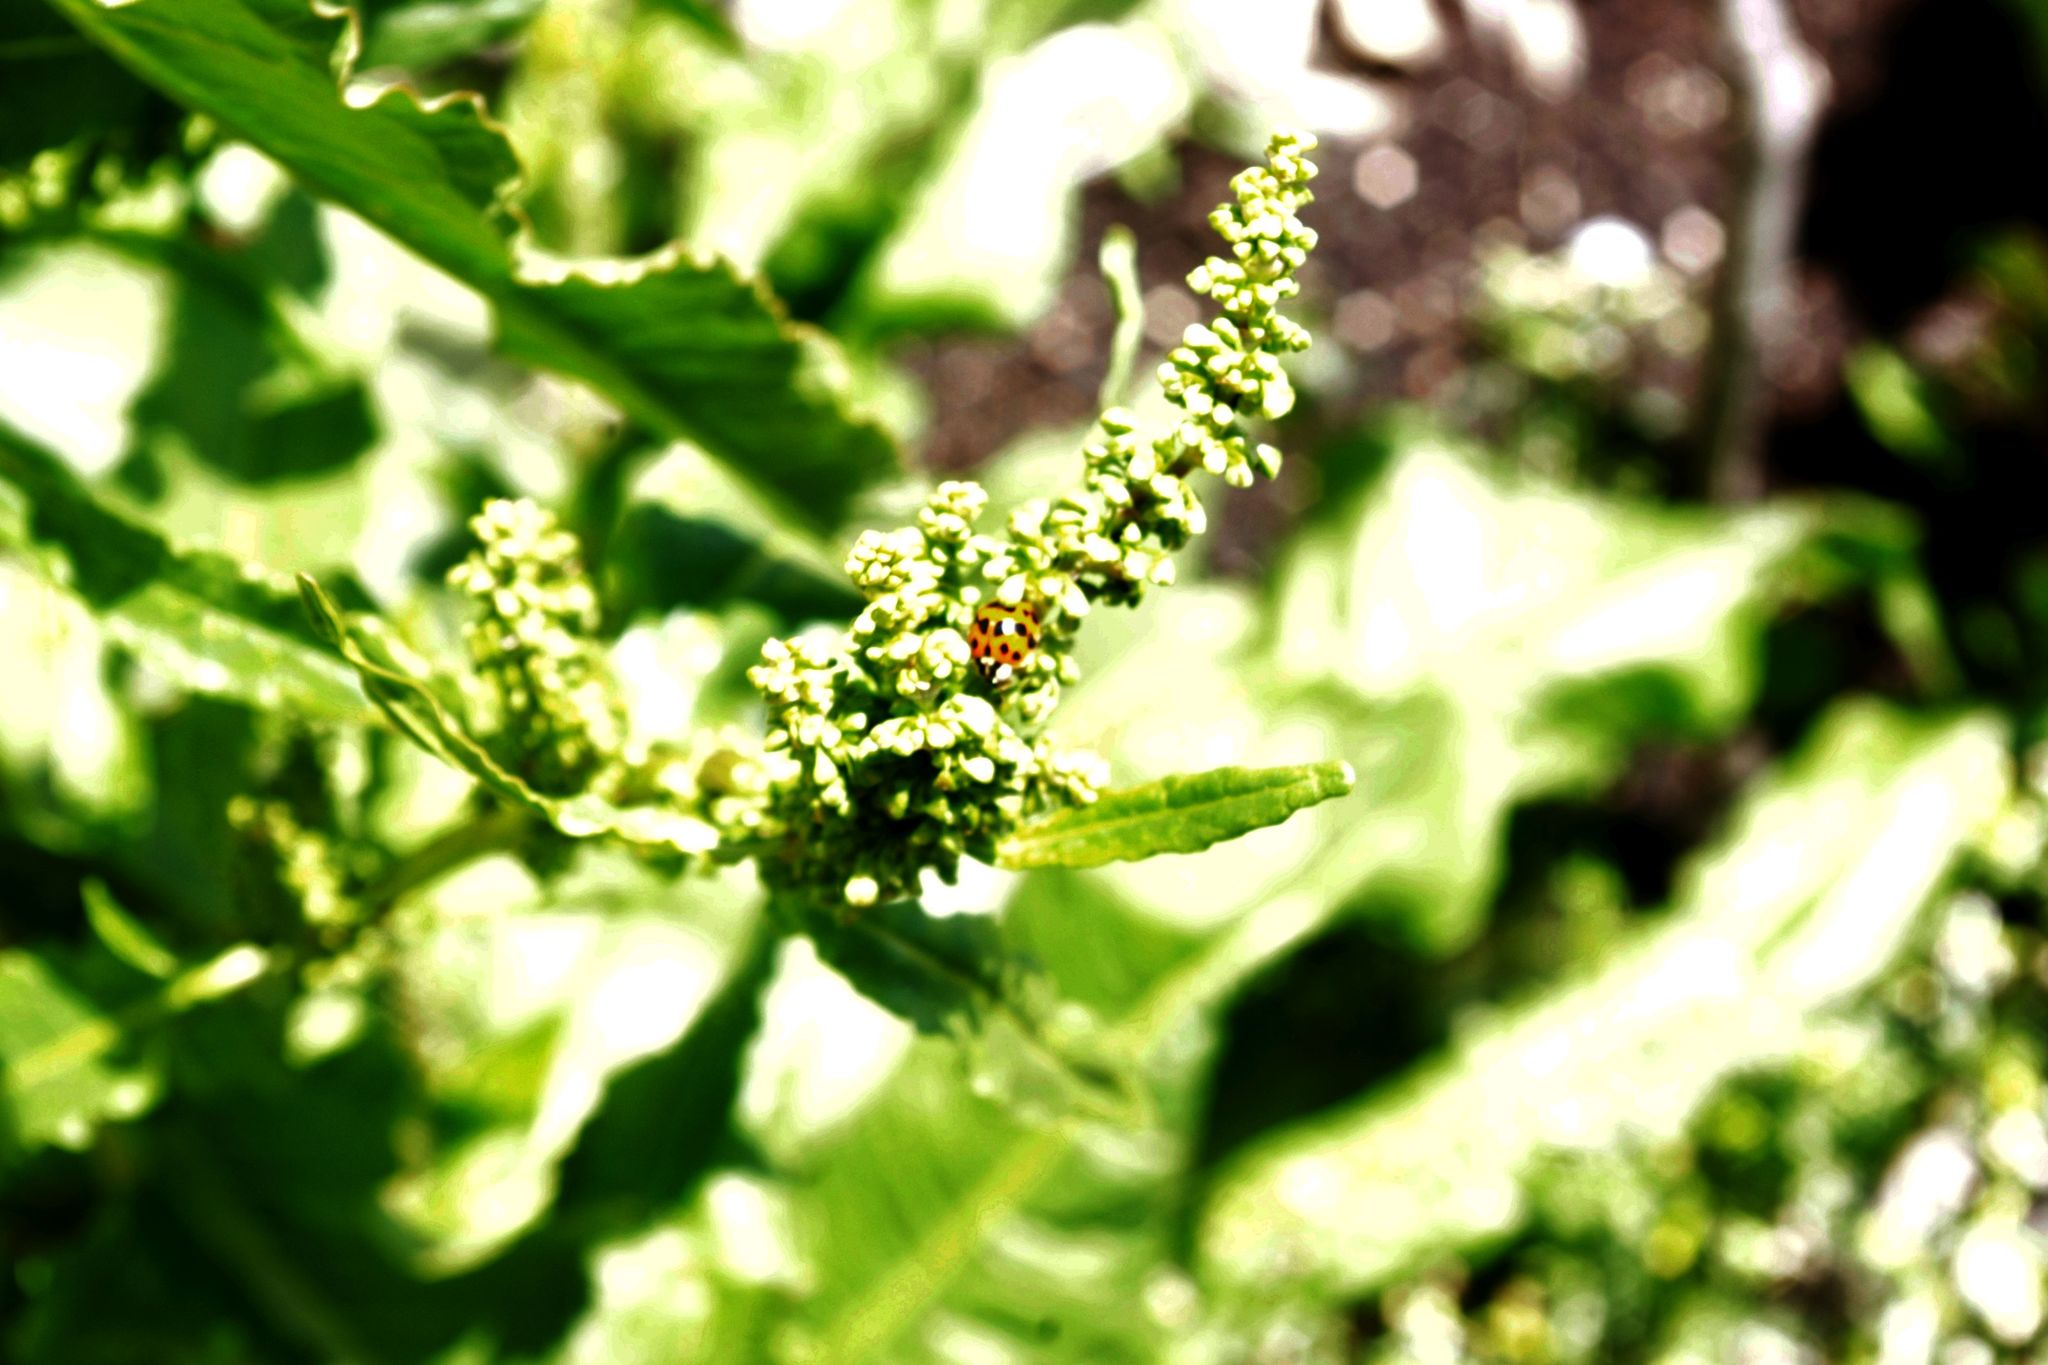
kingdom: Animalia
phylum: Arthropoda
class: Insecta
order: Coleoptera
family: Coccinellidae
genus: Harmonia
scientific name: Harmonia axyridis
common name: Harlequin ladybird
